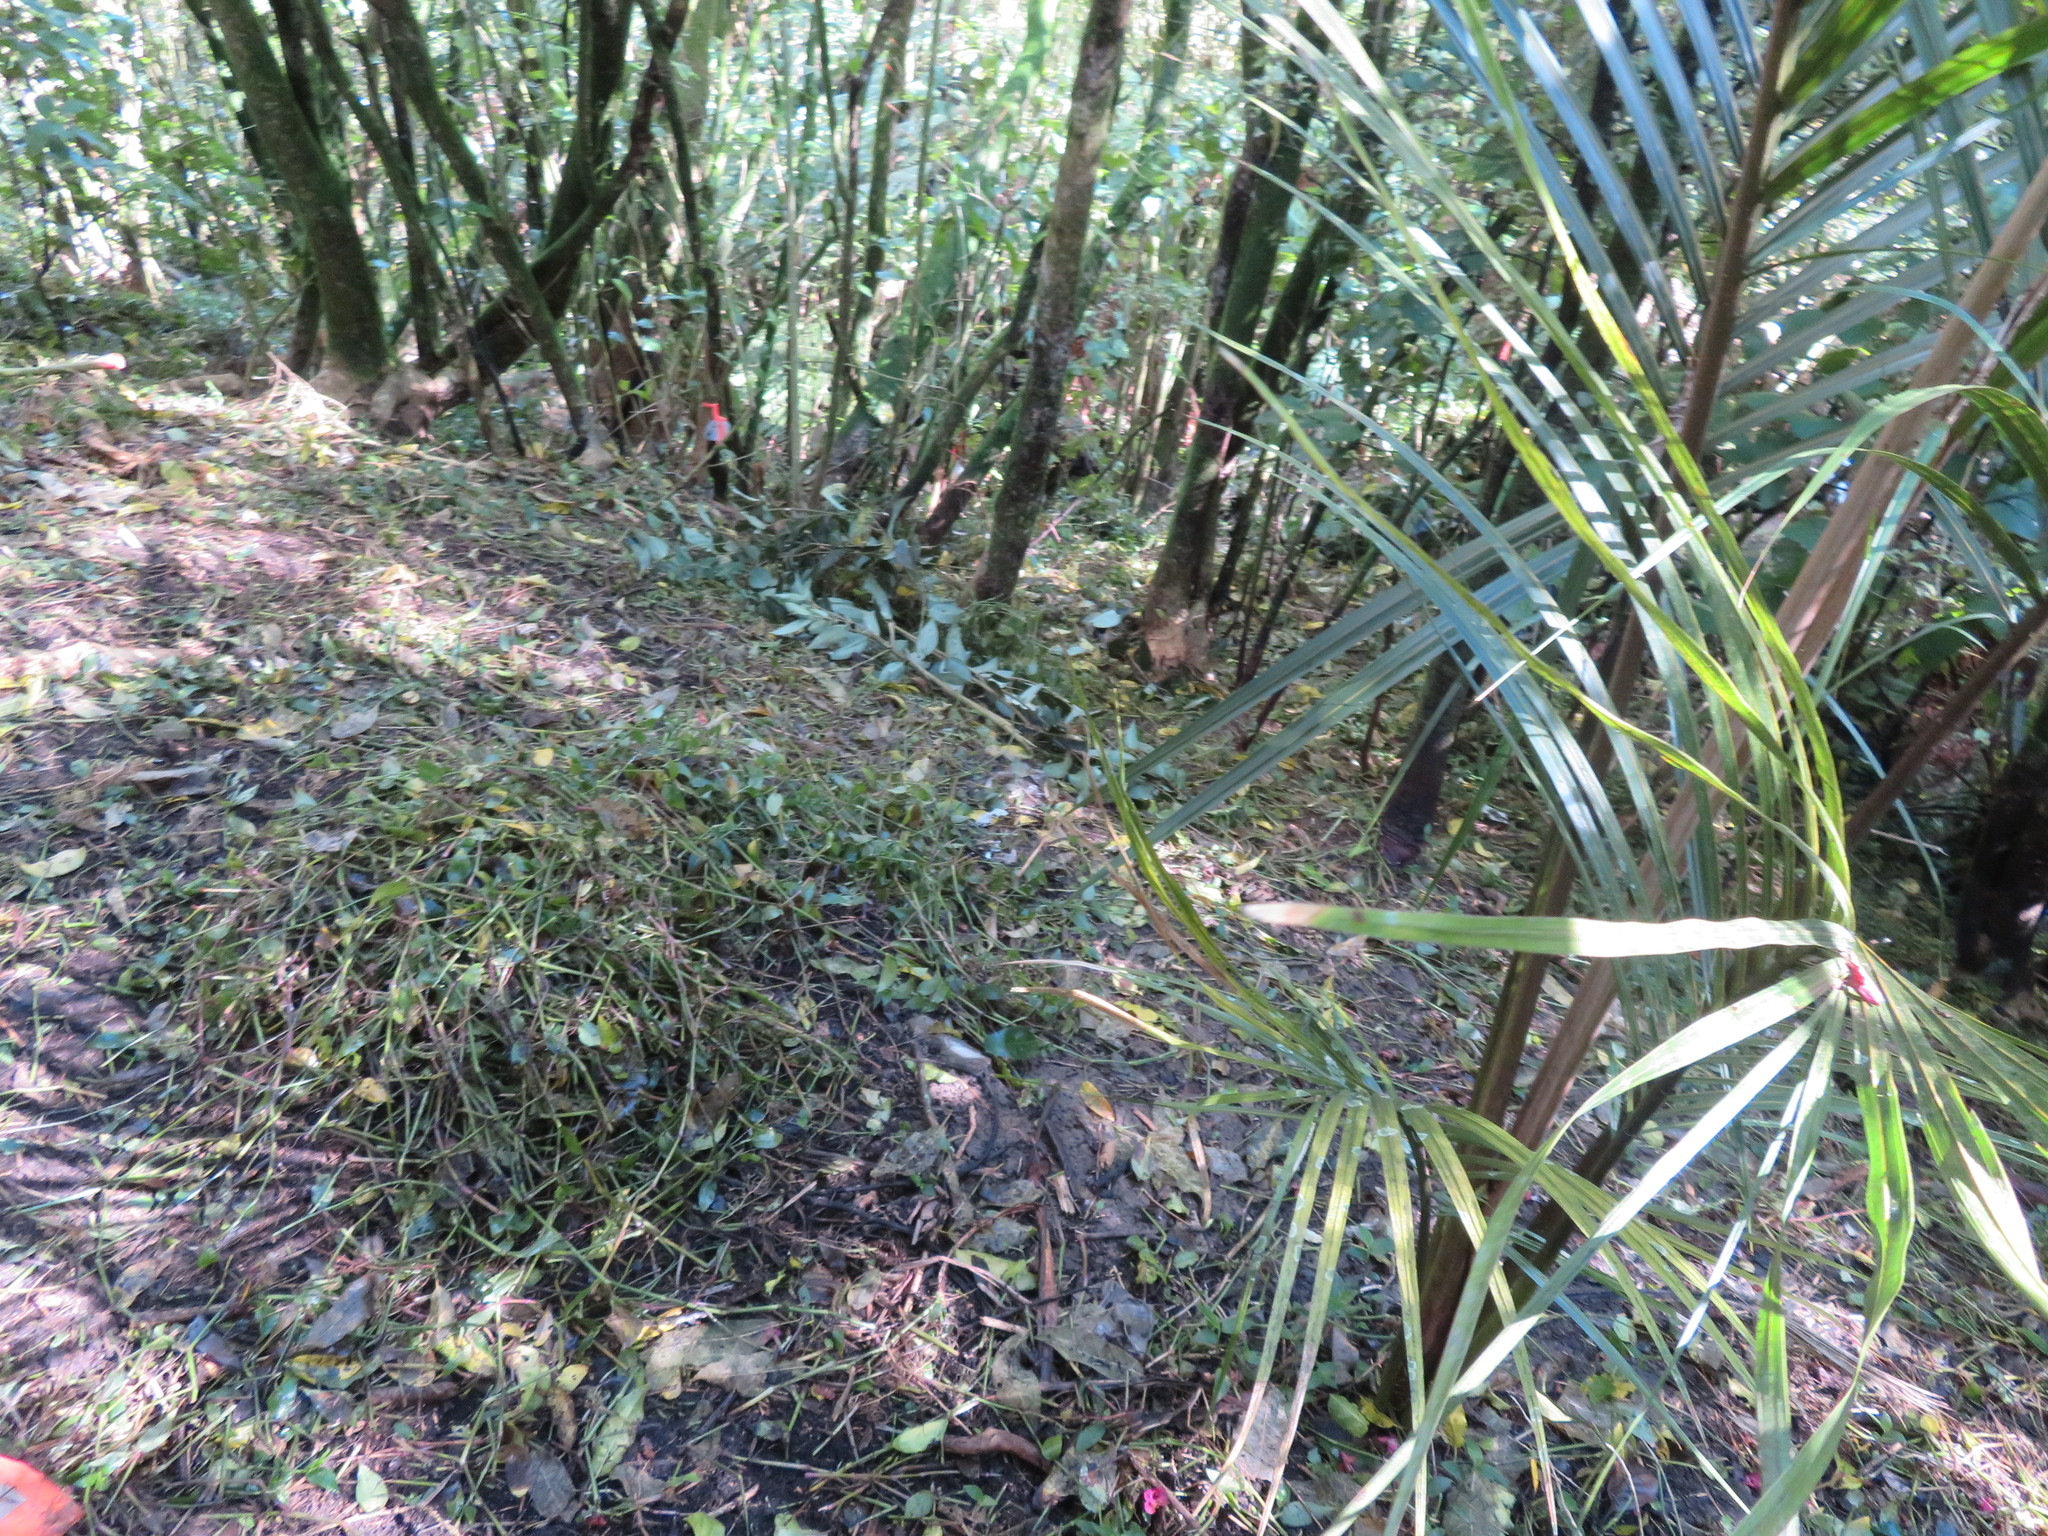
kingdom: Plantae
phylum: Tracheophyta
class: Liliopsida
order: Commelinales
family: Commelinaceae
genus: Tradescantia
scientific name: Tradescantia fluminensis
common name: Wandering-jew
